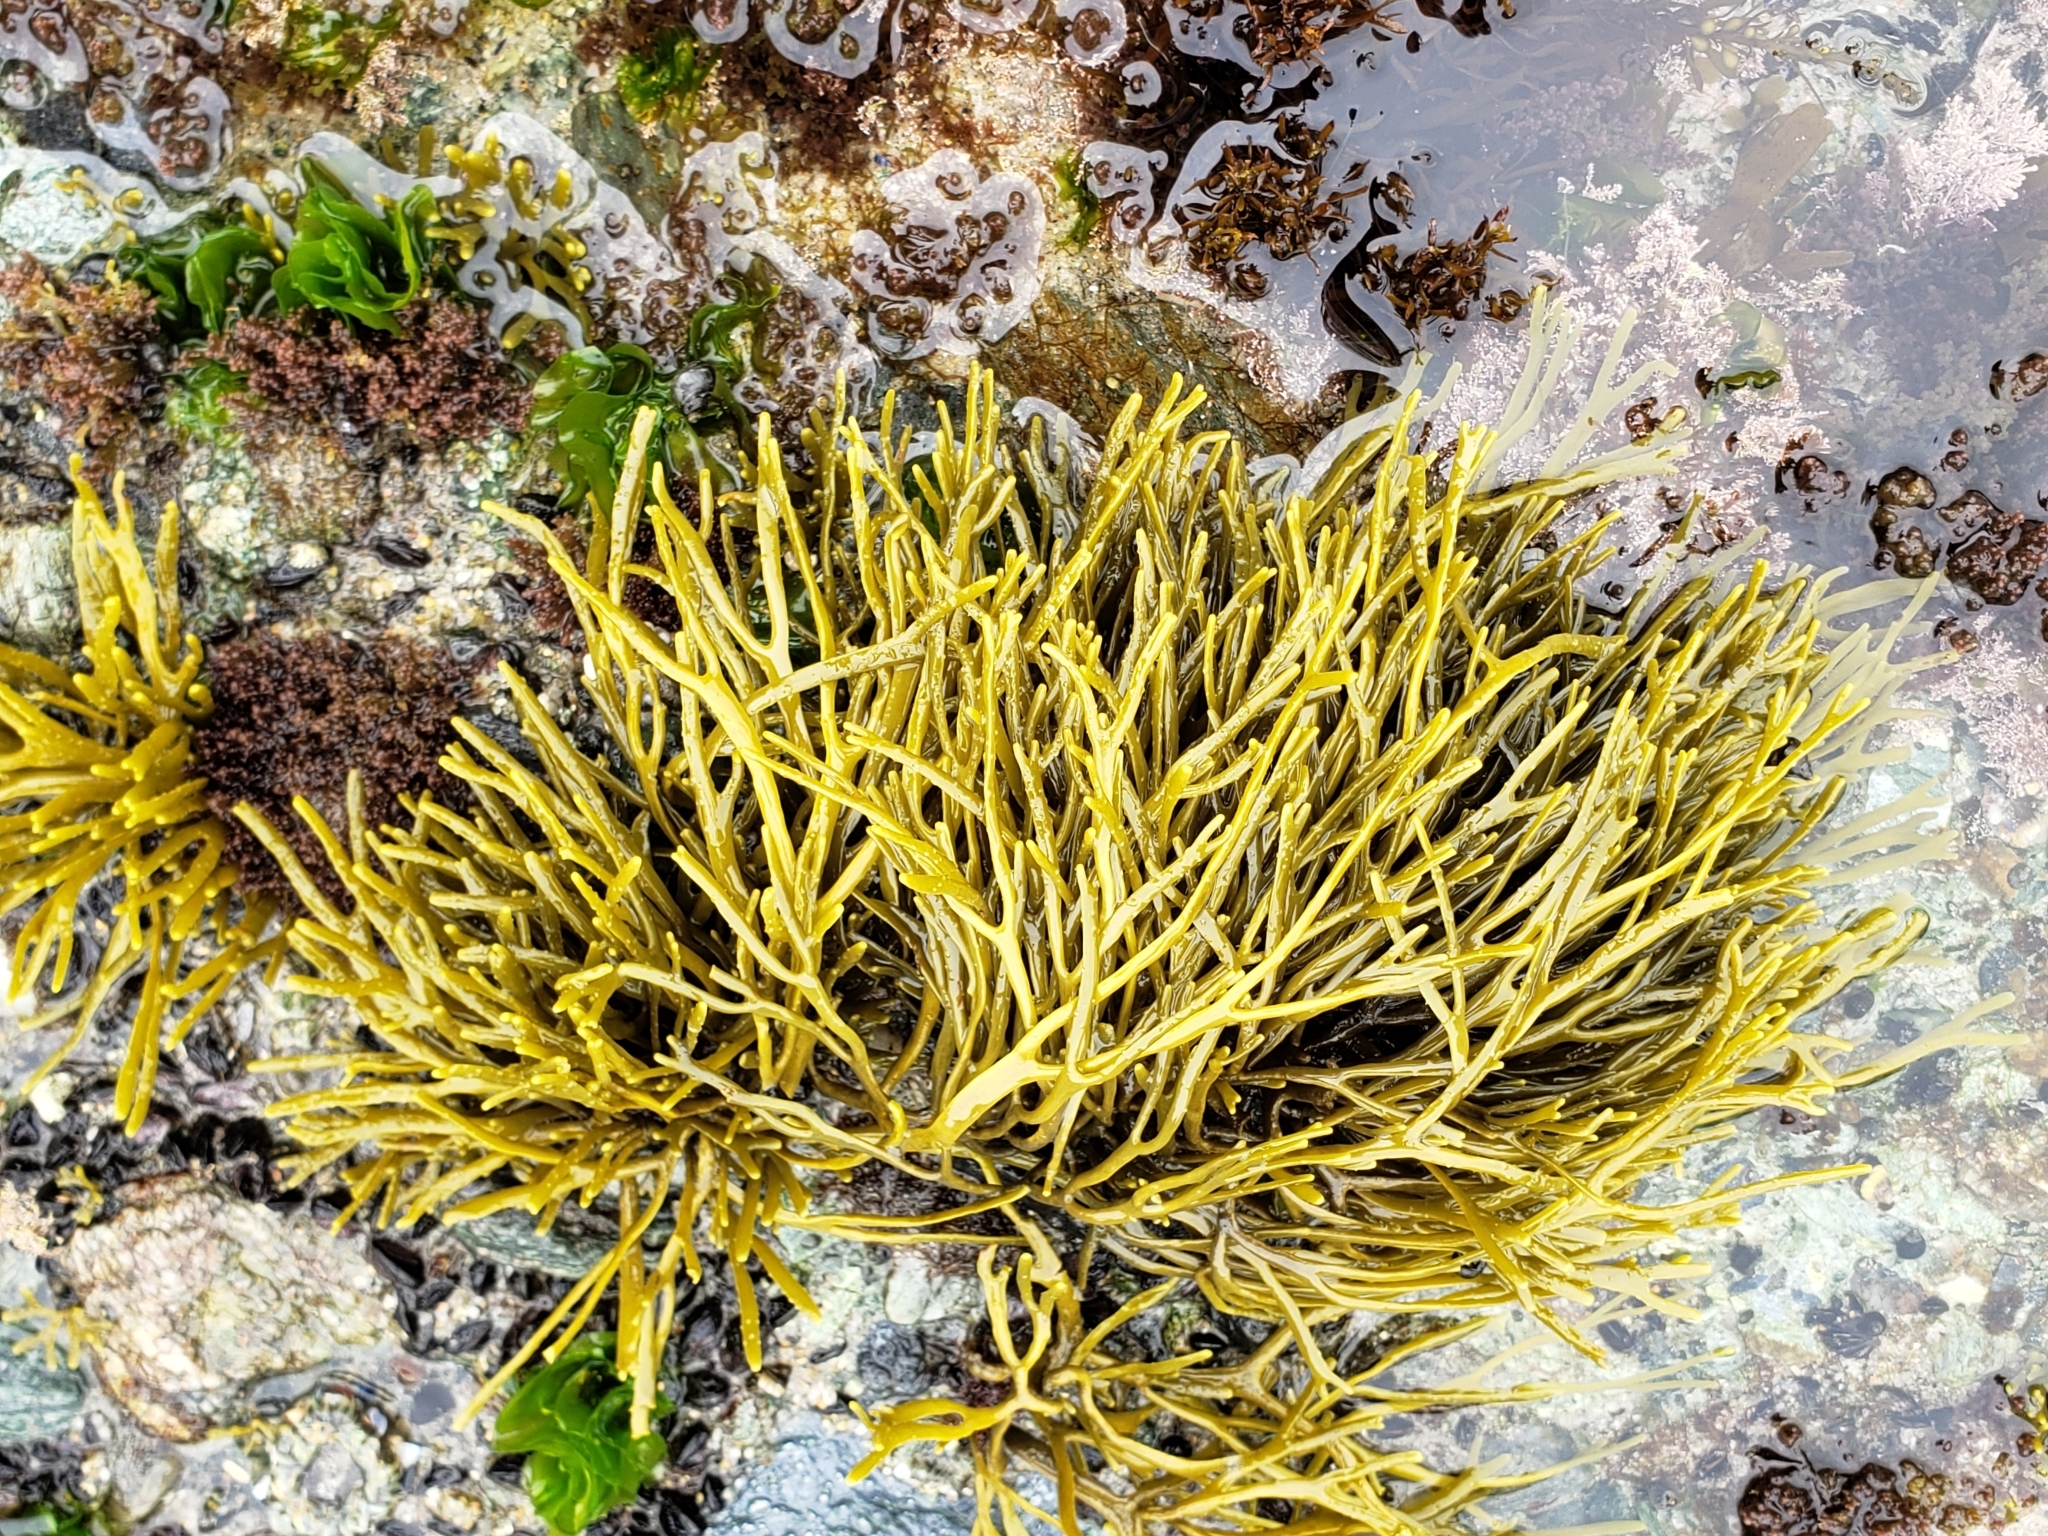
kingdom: Chromista
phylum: Ochrophyta
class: Phaeophyceae
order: Fucales
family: Fucaceae
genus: Silvetia
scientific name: Silvetia
